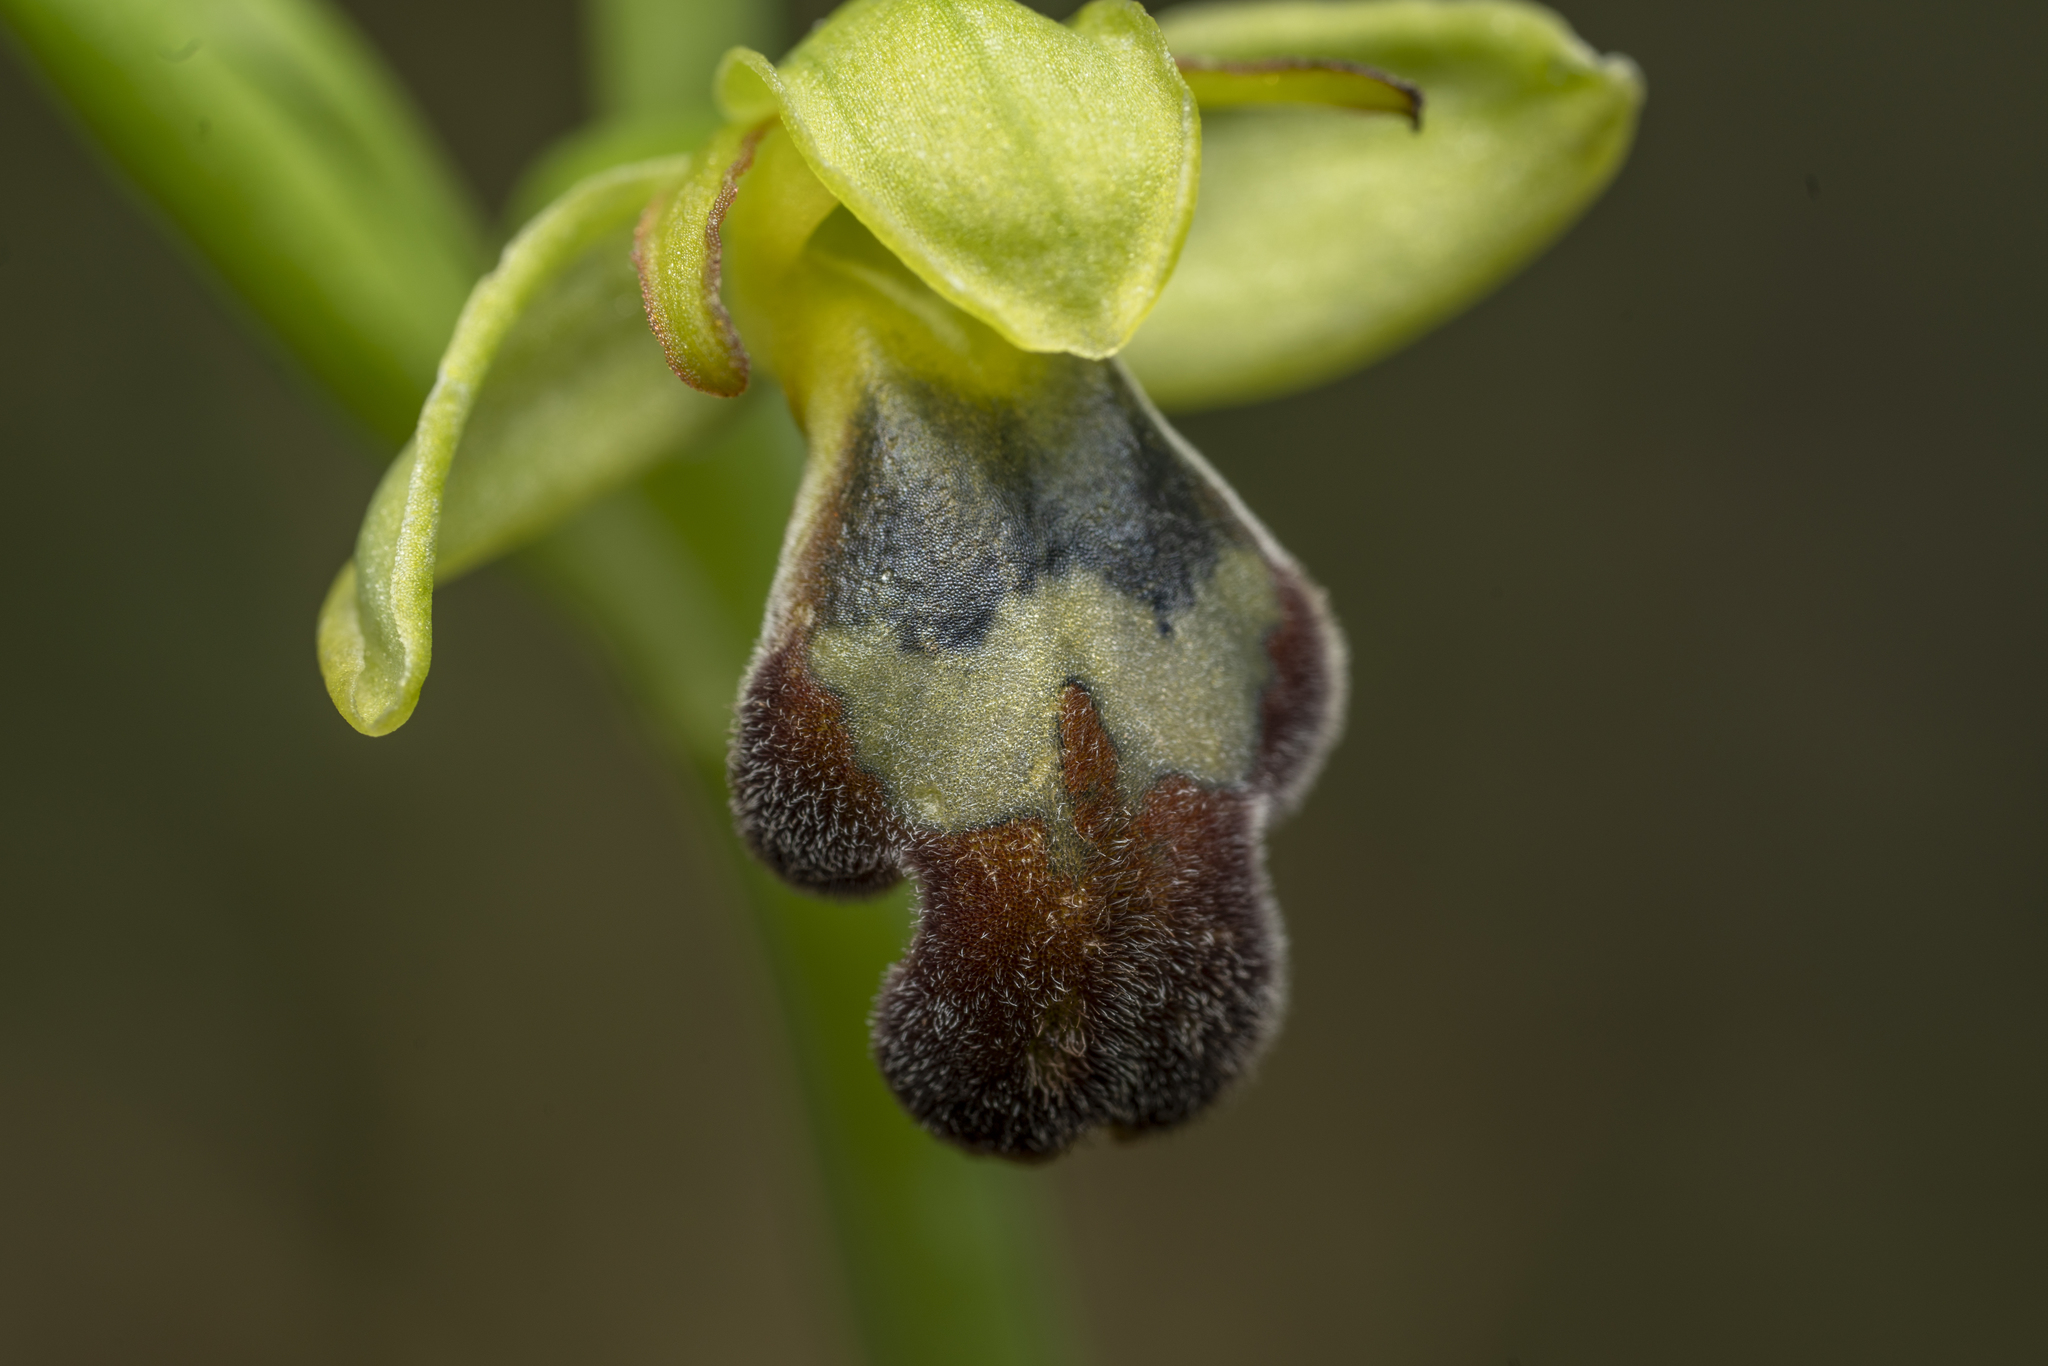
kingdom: Plantae
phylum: Tracheophyta
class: Liliopsida
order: Asparagales
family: Orchidaceae
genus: Ophrys
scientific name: Ophrys brigittae
